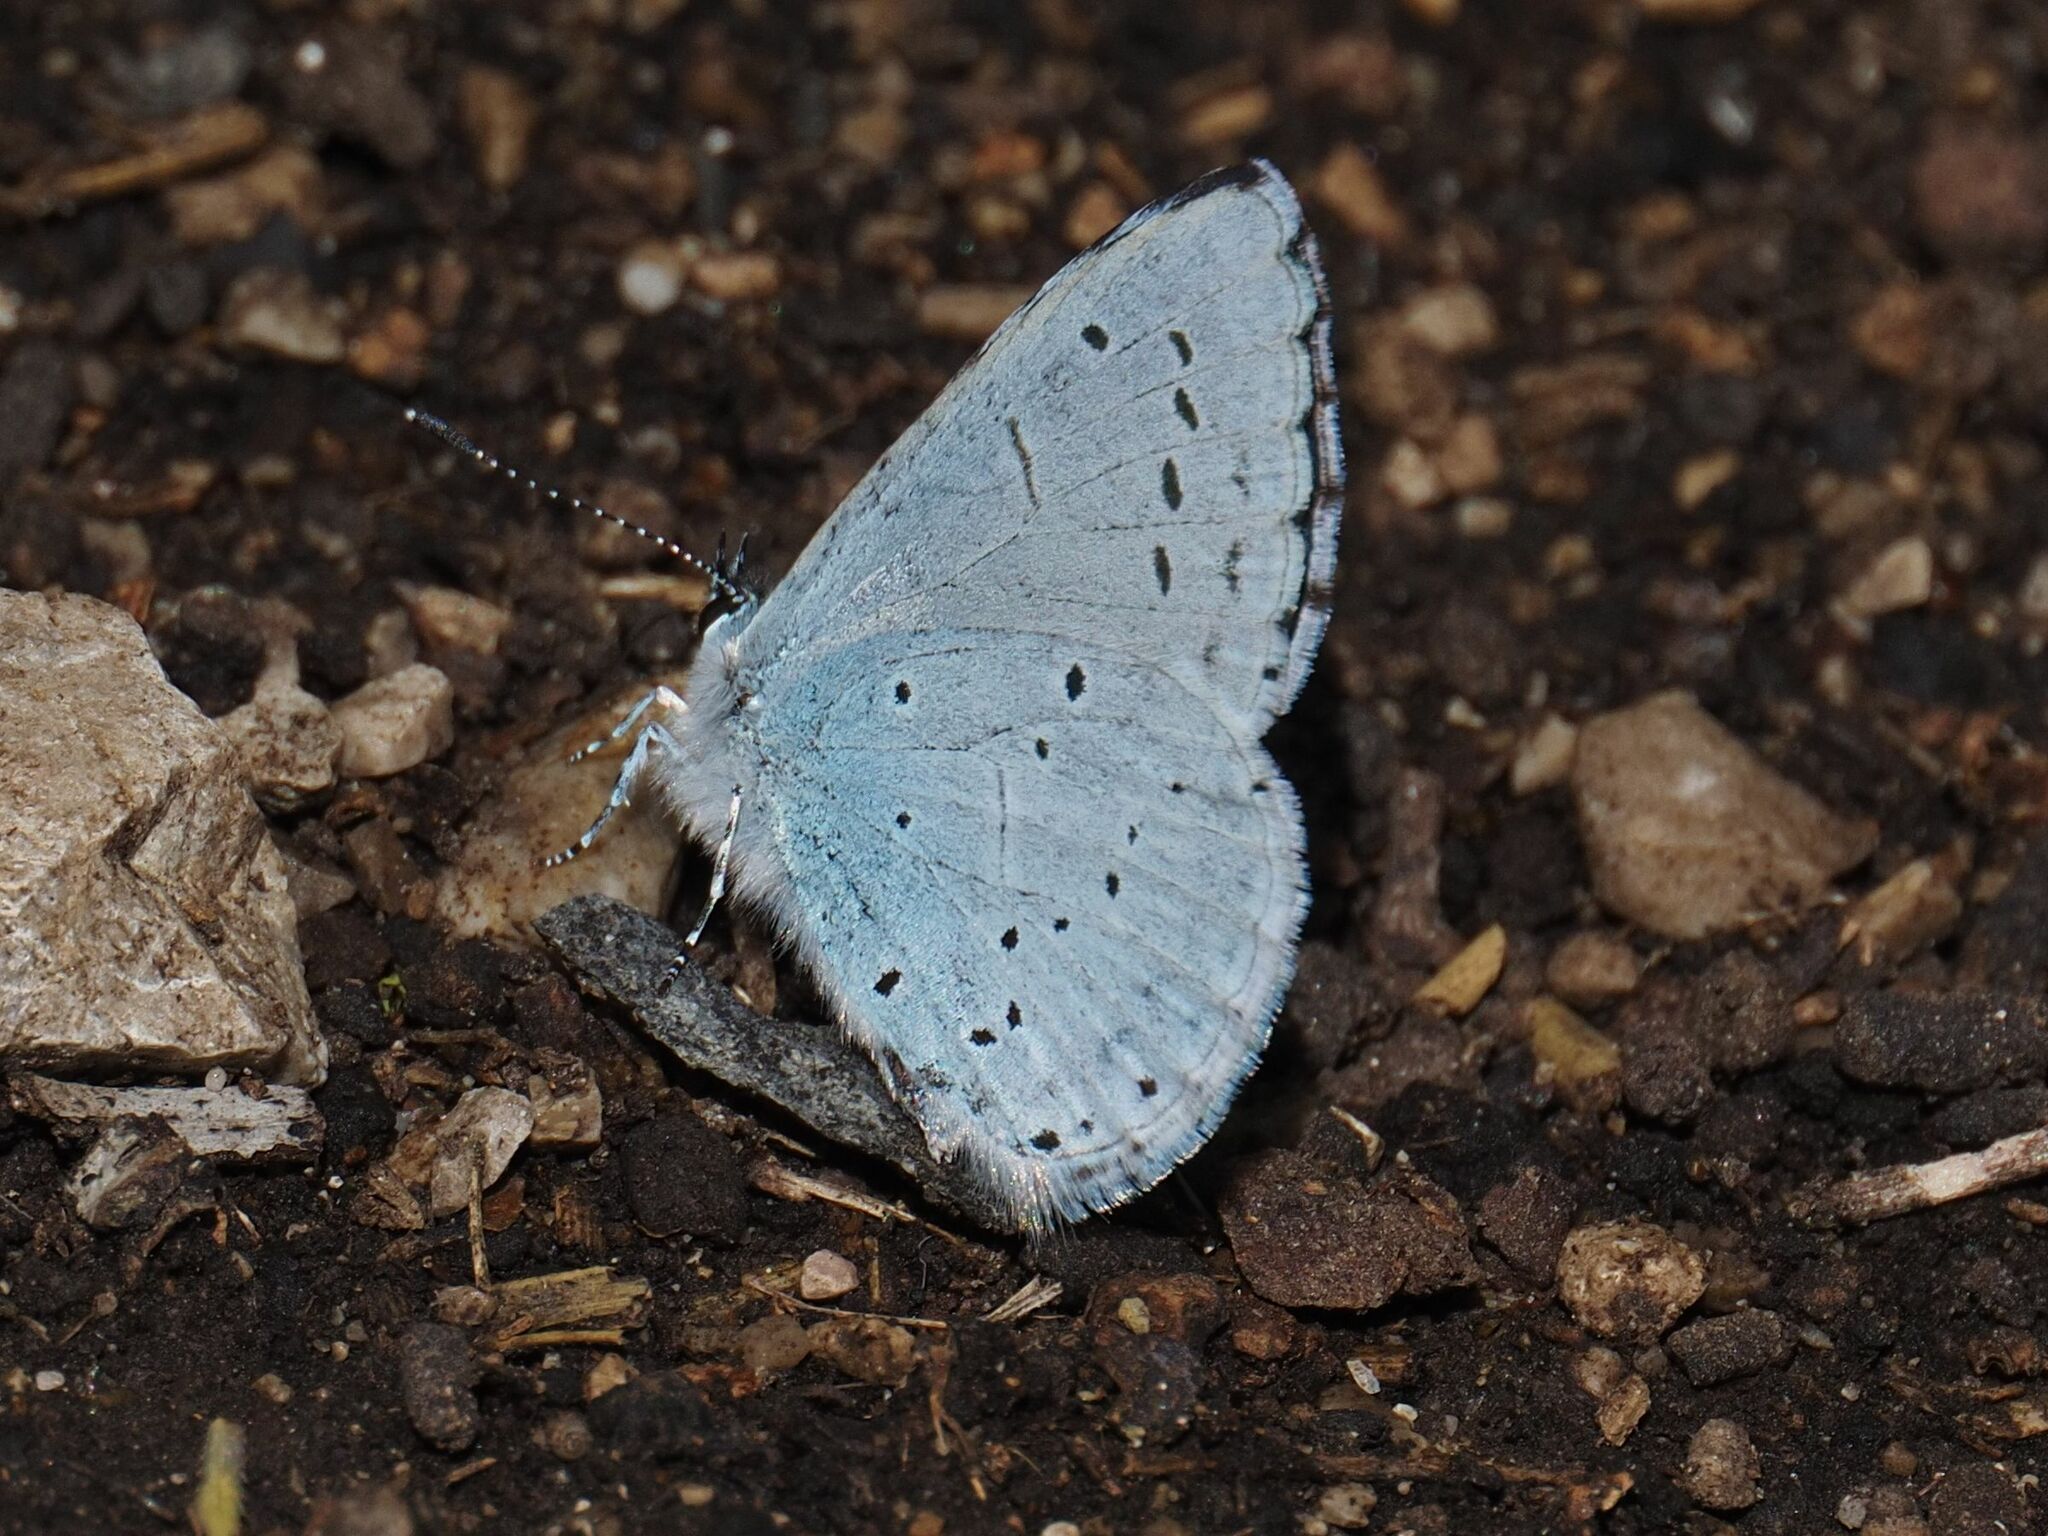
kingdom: Animalia
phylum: Arthropoda
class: Insecta
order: Lepidoptera
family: Lycaenidae
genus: Celastrina
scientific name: Celastrina argiolus
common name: Holly blue
